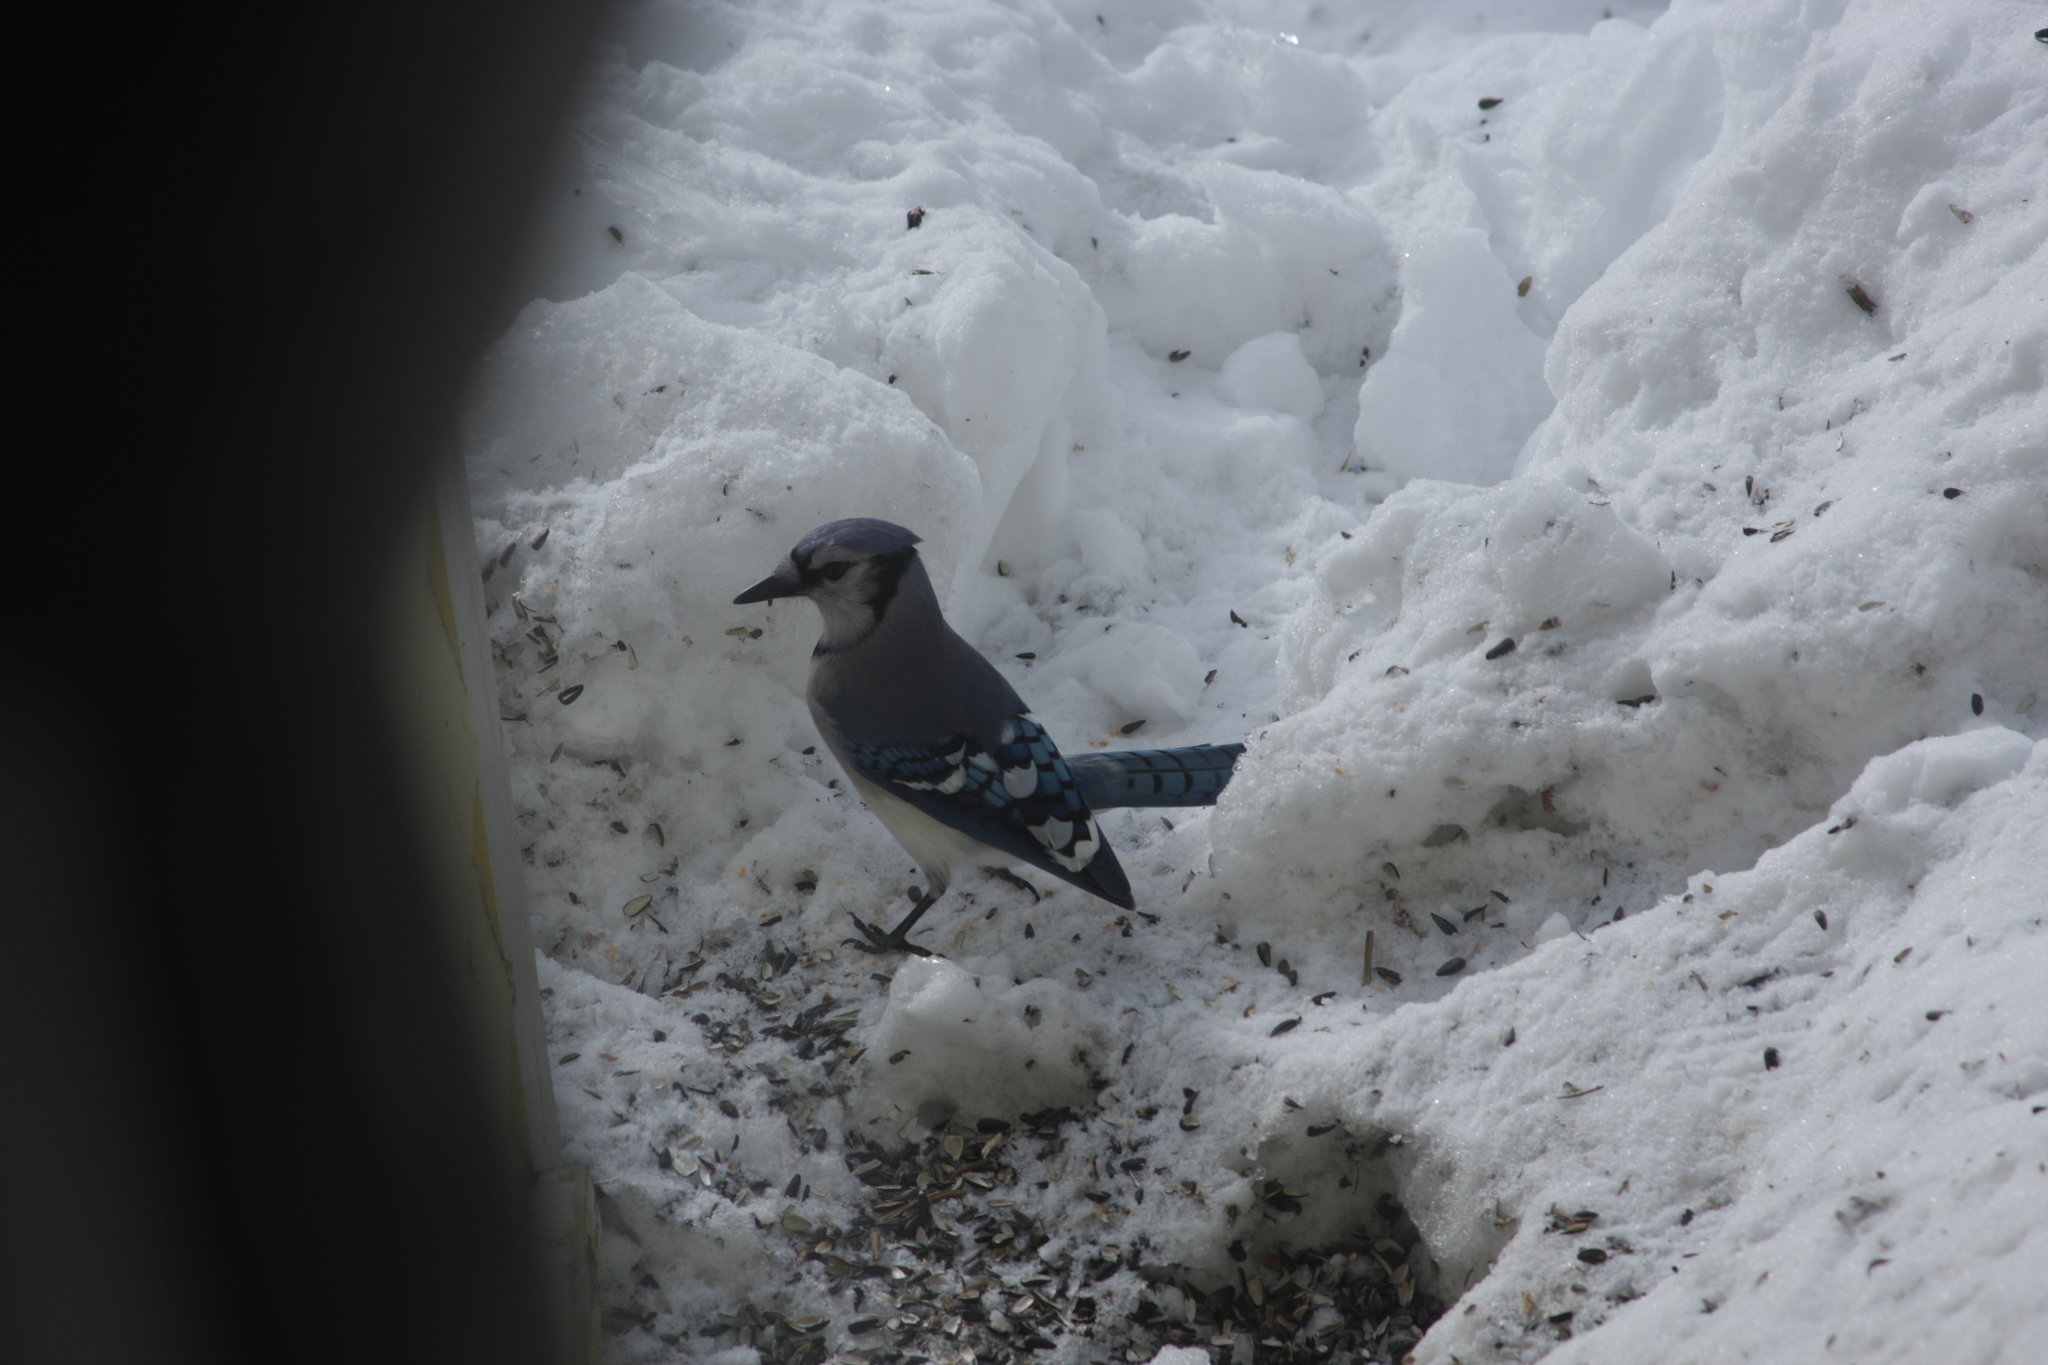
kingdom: Animalia
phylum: Chordata
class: Aves
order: Passeriformes
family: Corvidae
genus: Cyanocitta
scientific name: Cyanocitta cristata
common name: Blue jay
